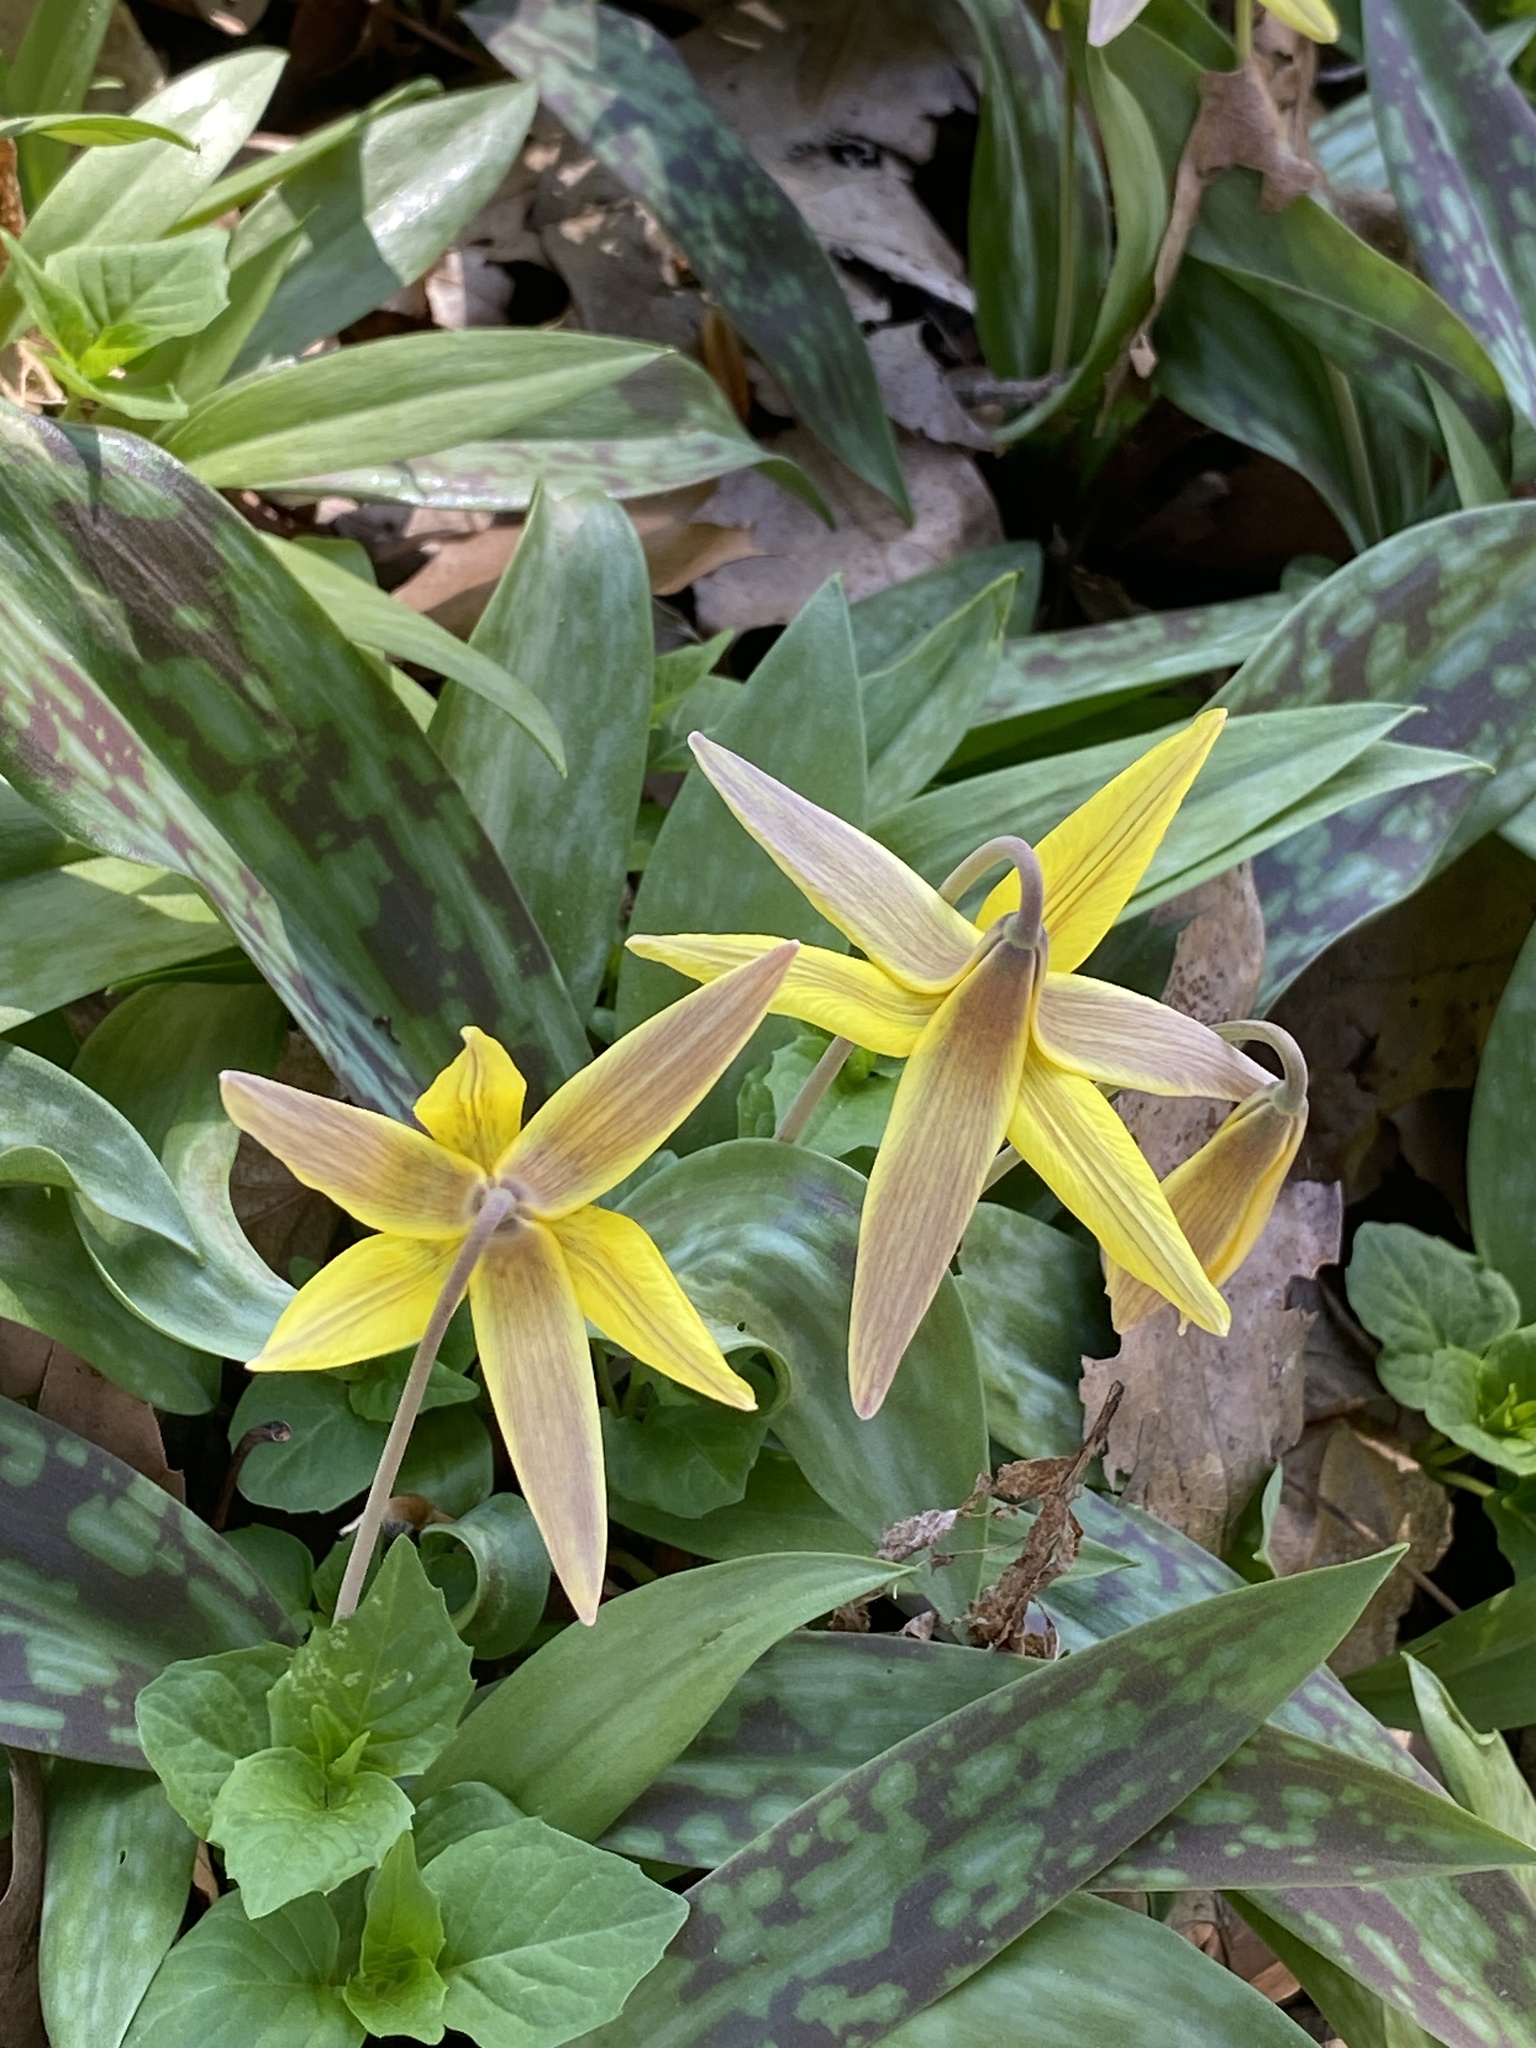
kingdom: Plantae
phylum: Tracheophyta
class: Liliopsida
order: Liliales
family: Liliaceae
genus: Erythronium
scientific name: Erythronium americanum
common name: Yellow adder's-tongue
